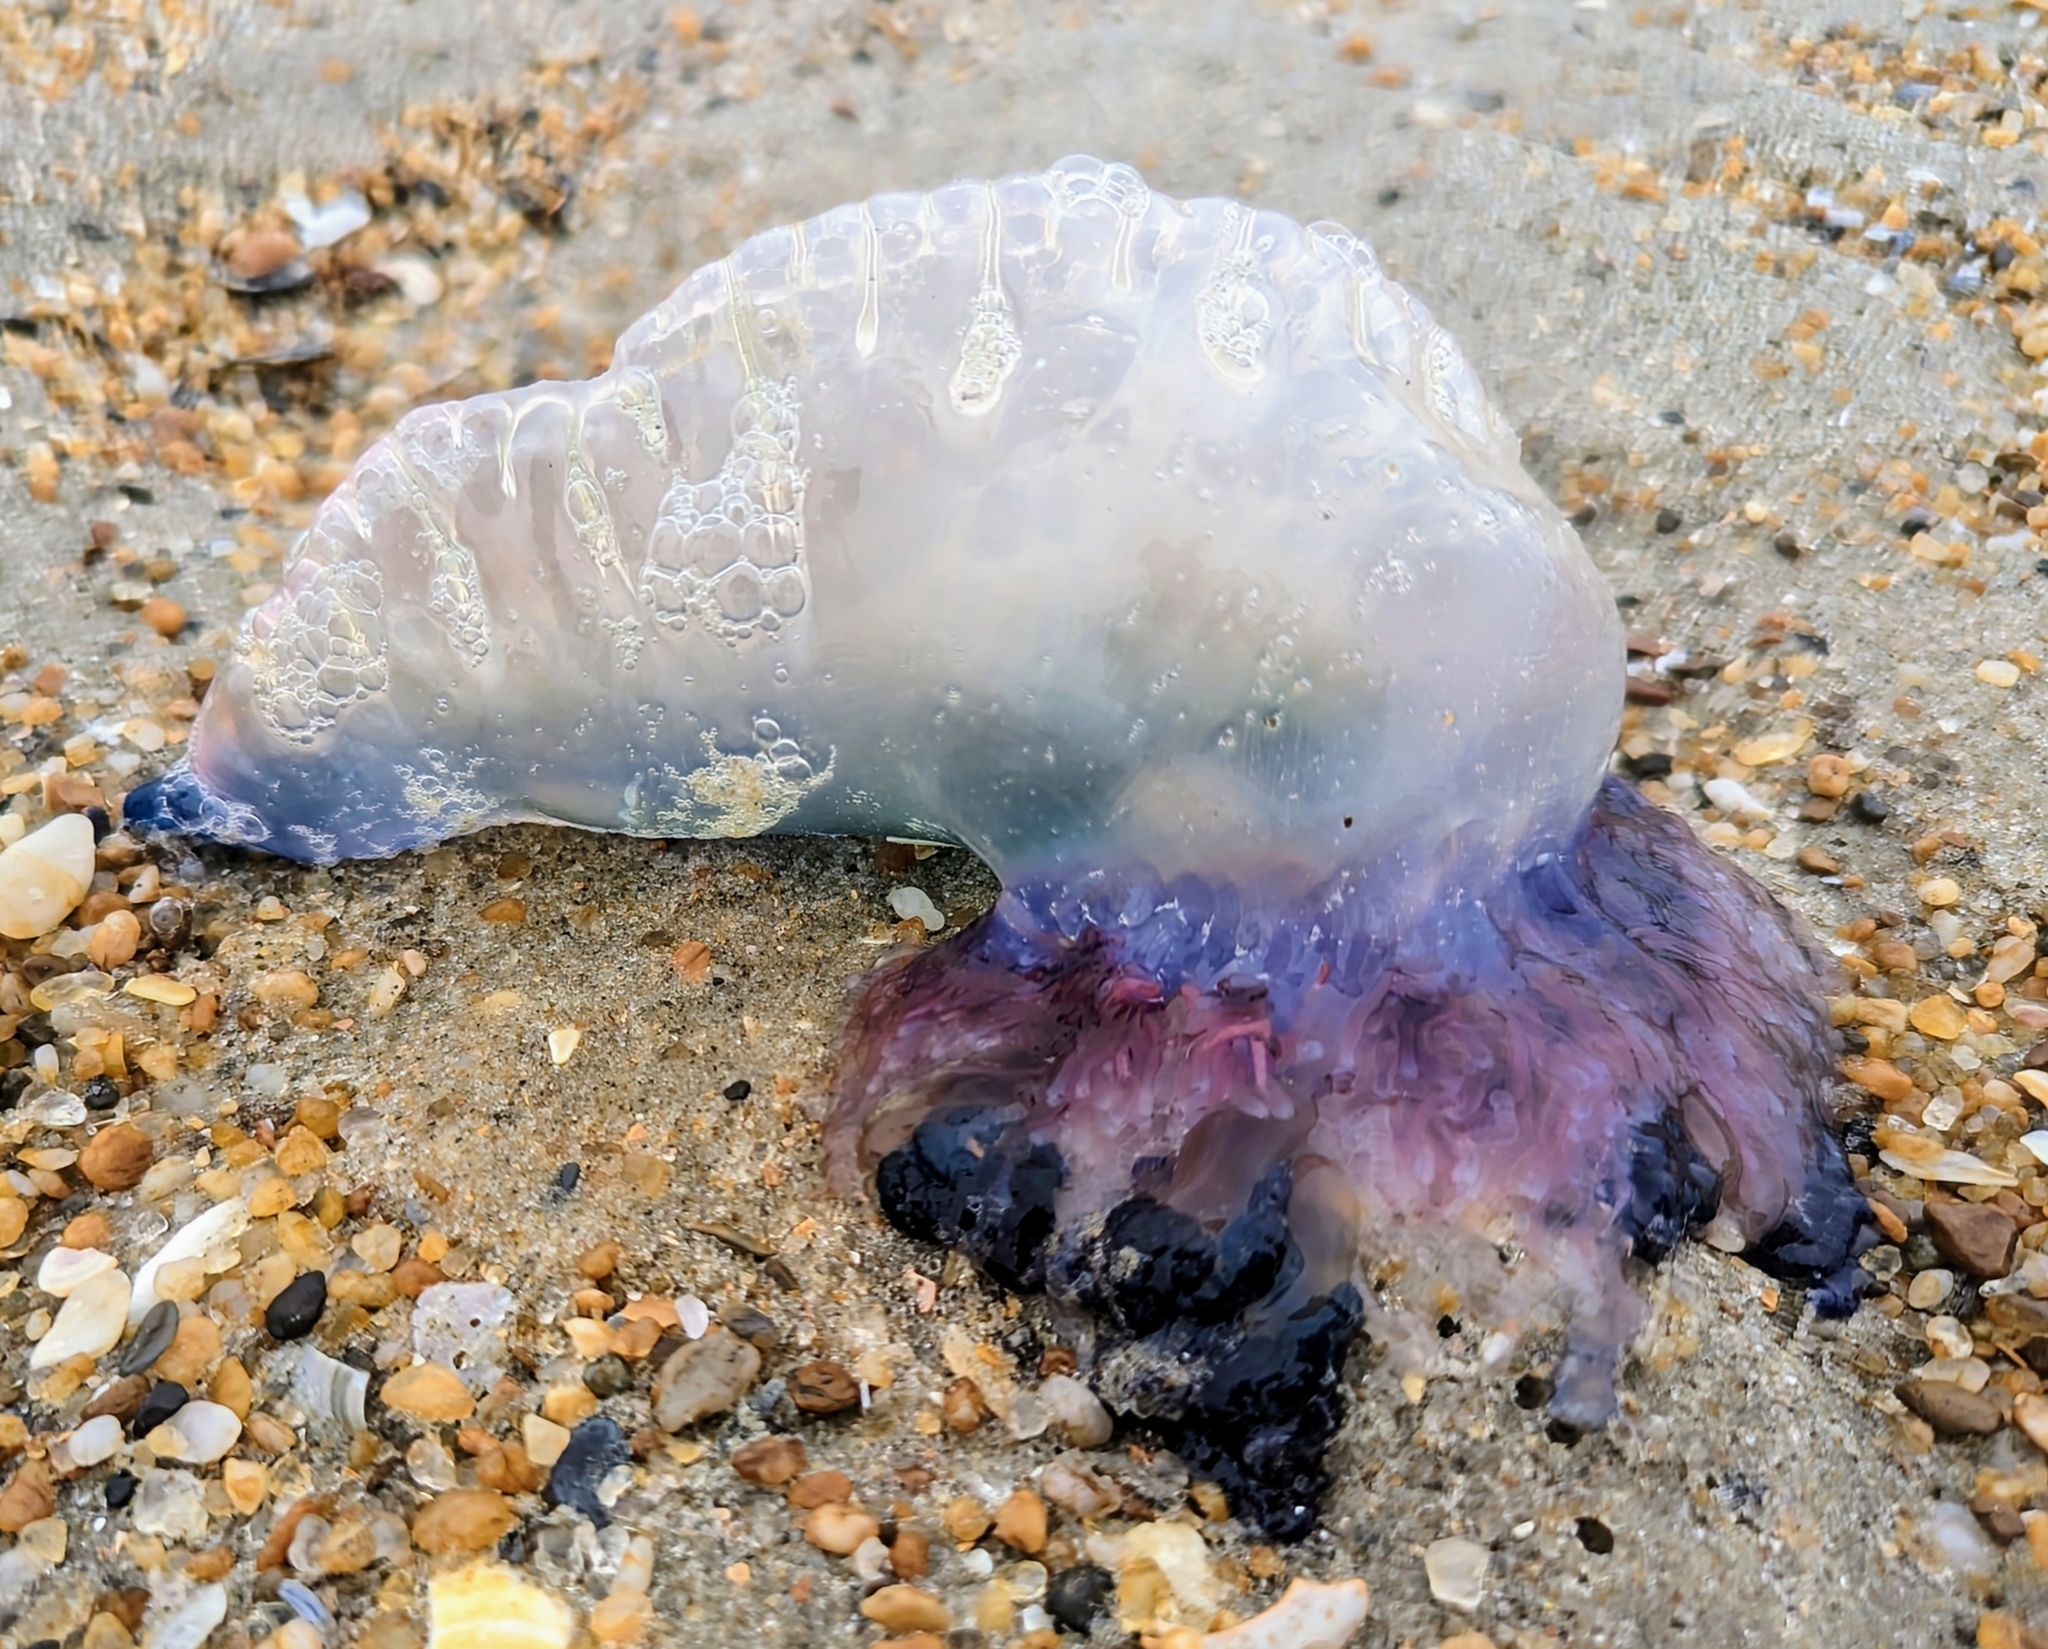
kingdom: Animalia
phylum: Cnidaria
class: Hydrozoa
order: Siphonophorae
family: Physaliidae
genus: Physalia
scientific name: Physalia physalis
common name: Portuguese man-of-war
